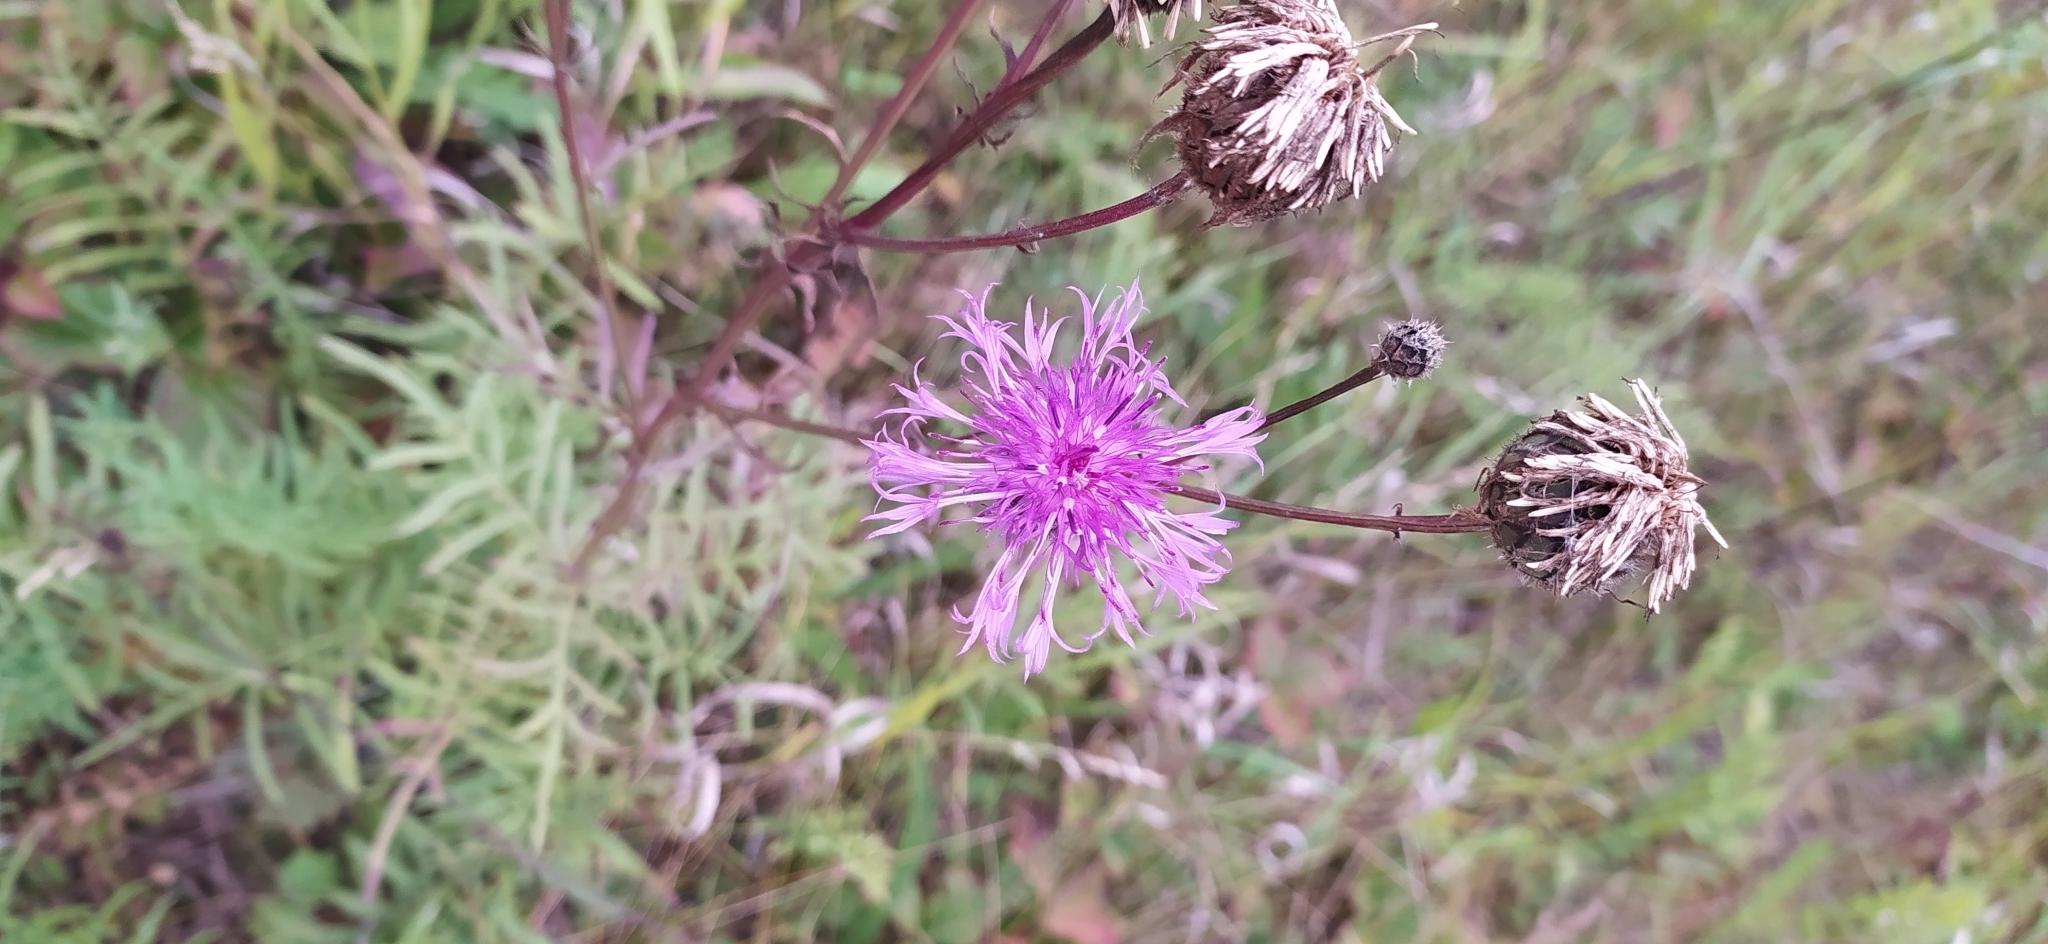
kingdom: Plantae
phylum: Tracheophyta
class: Magnoliopsida
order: Asterales
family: Asteraceae
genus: Centaurea
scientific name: Centaurea scabiosa
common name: Greater knapweed
